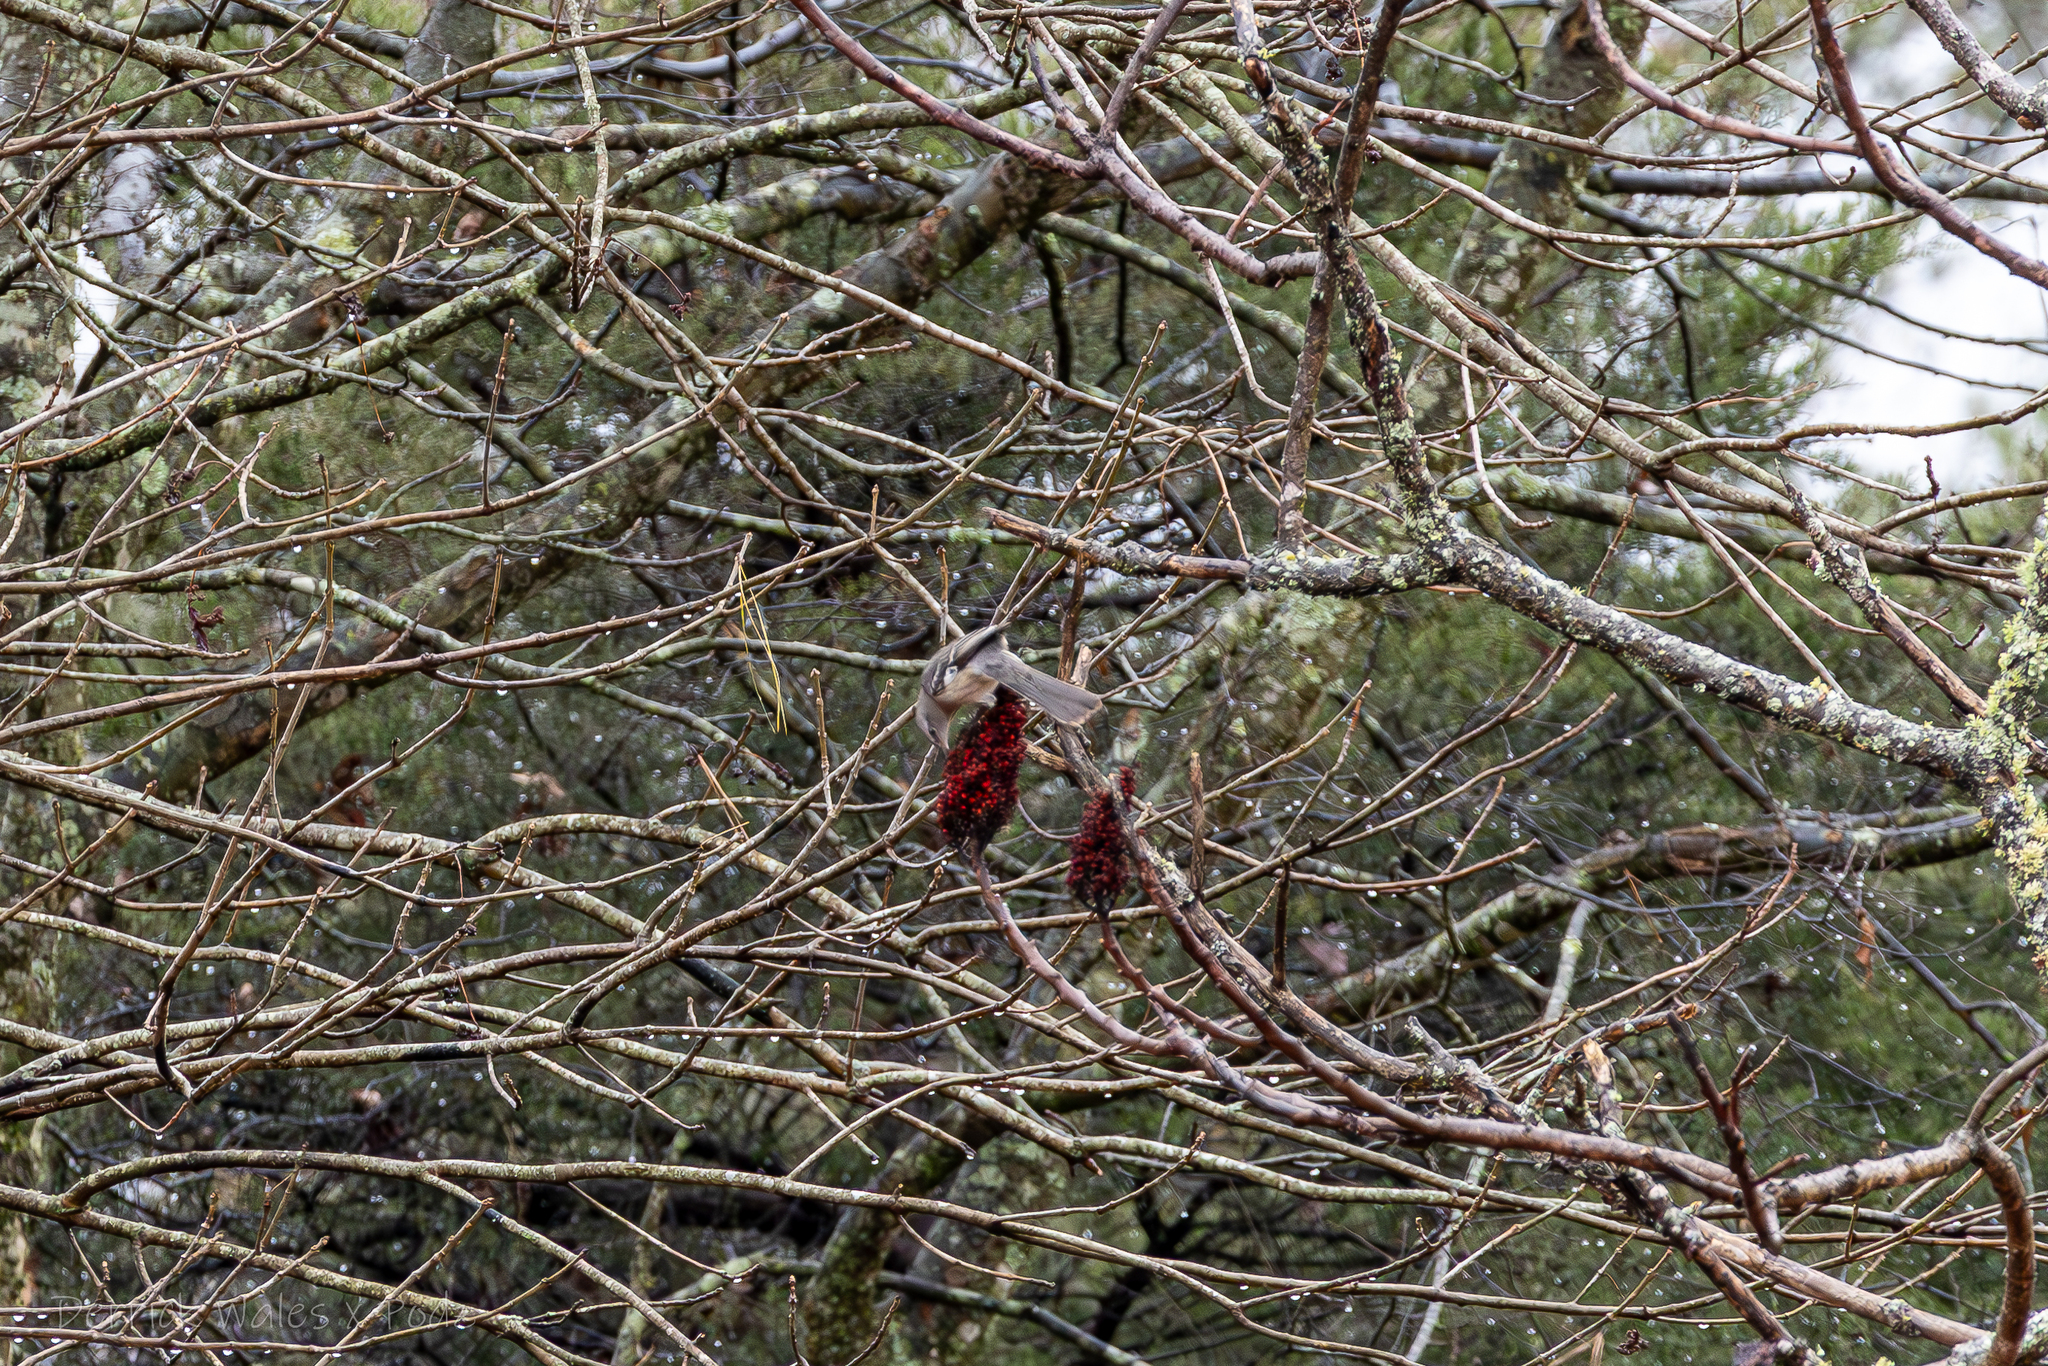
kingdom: Animalia
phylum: Chordata
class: Aves
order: Passeriformes
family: Mimidae
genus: Mimus
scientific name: Mimus polyglottos
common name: Northern mockingbird
